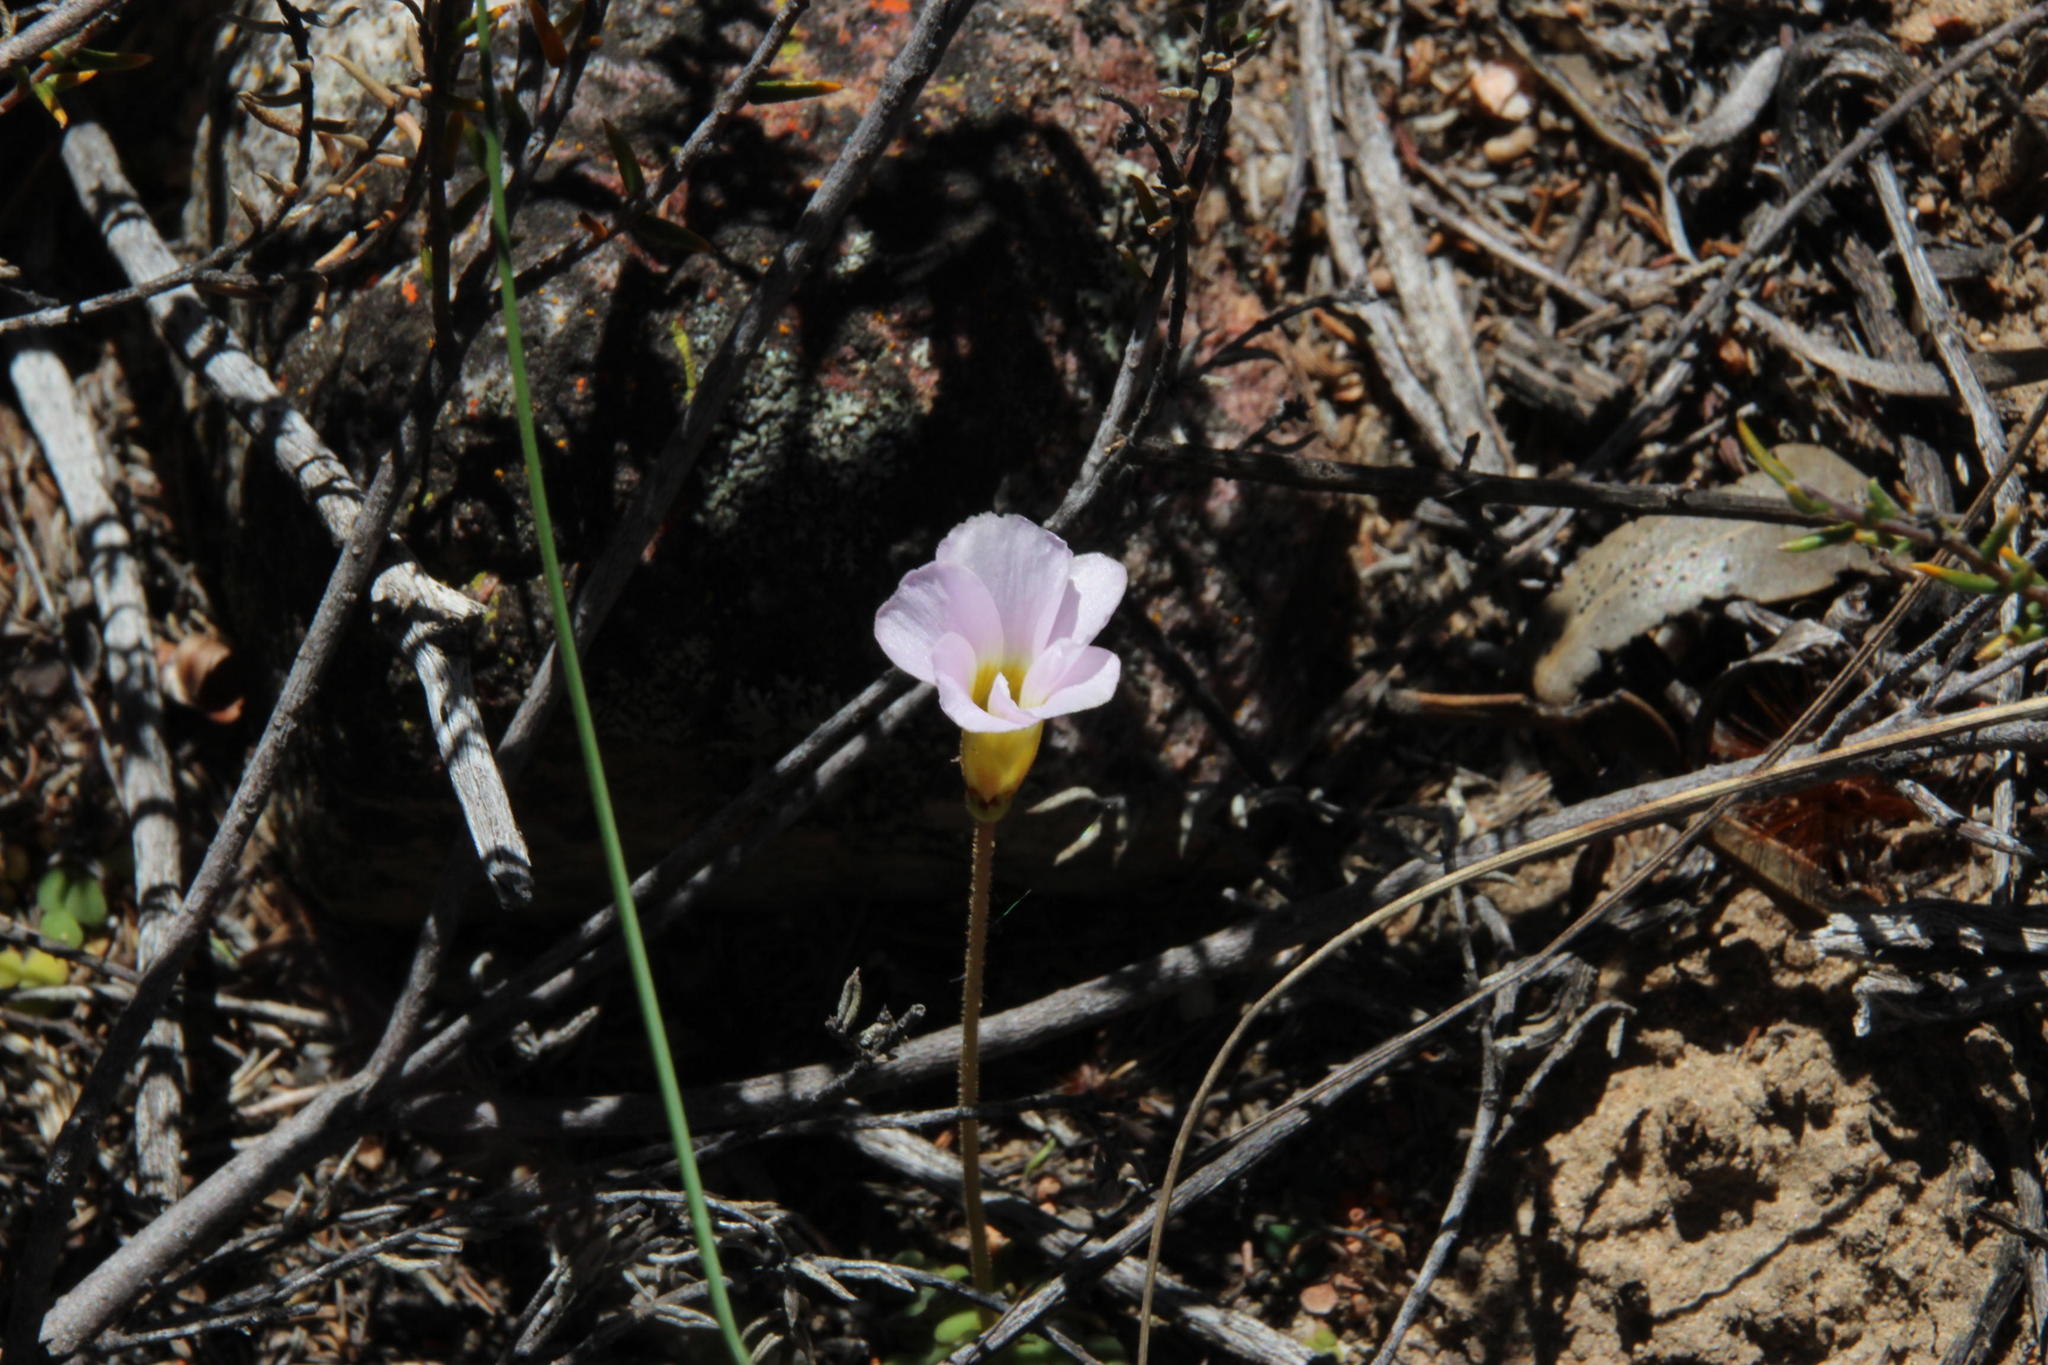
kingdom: Plantae
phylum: Tracheophyta
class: Magnoliopsida
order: Oxalidales
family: Oxalidaceae
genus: Oxalis
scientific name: Oxalis fergusoniae
